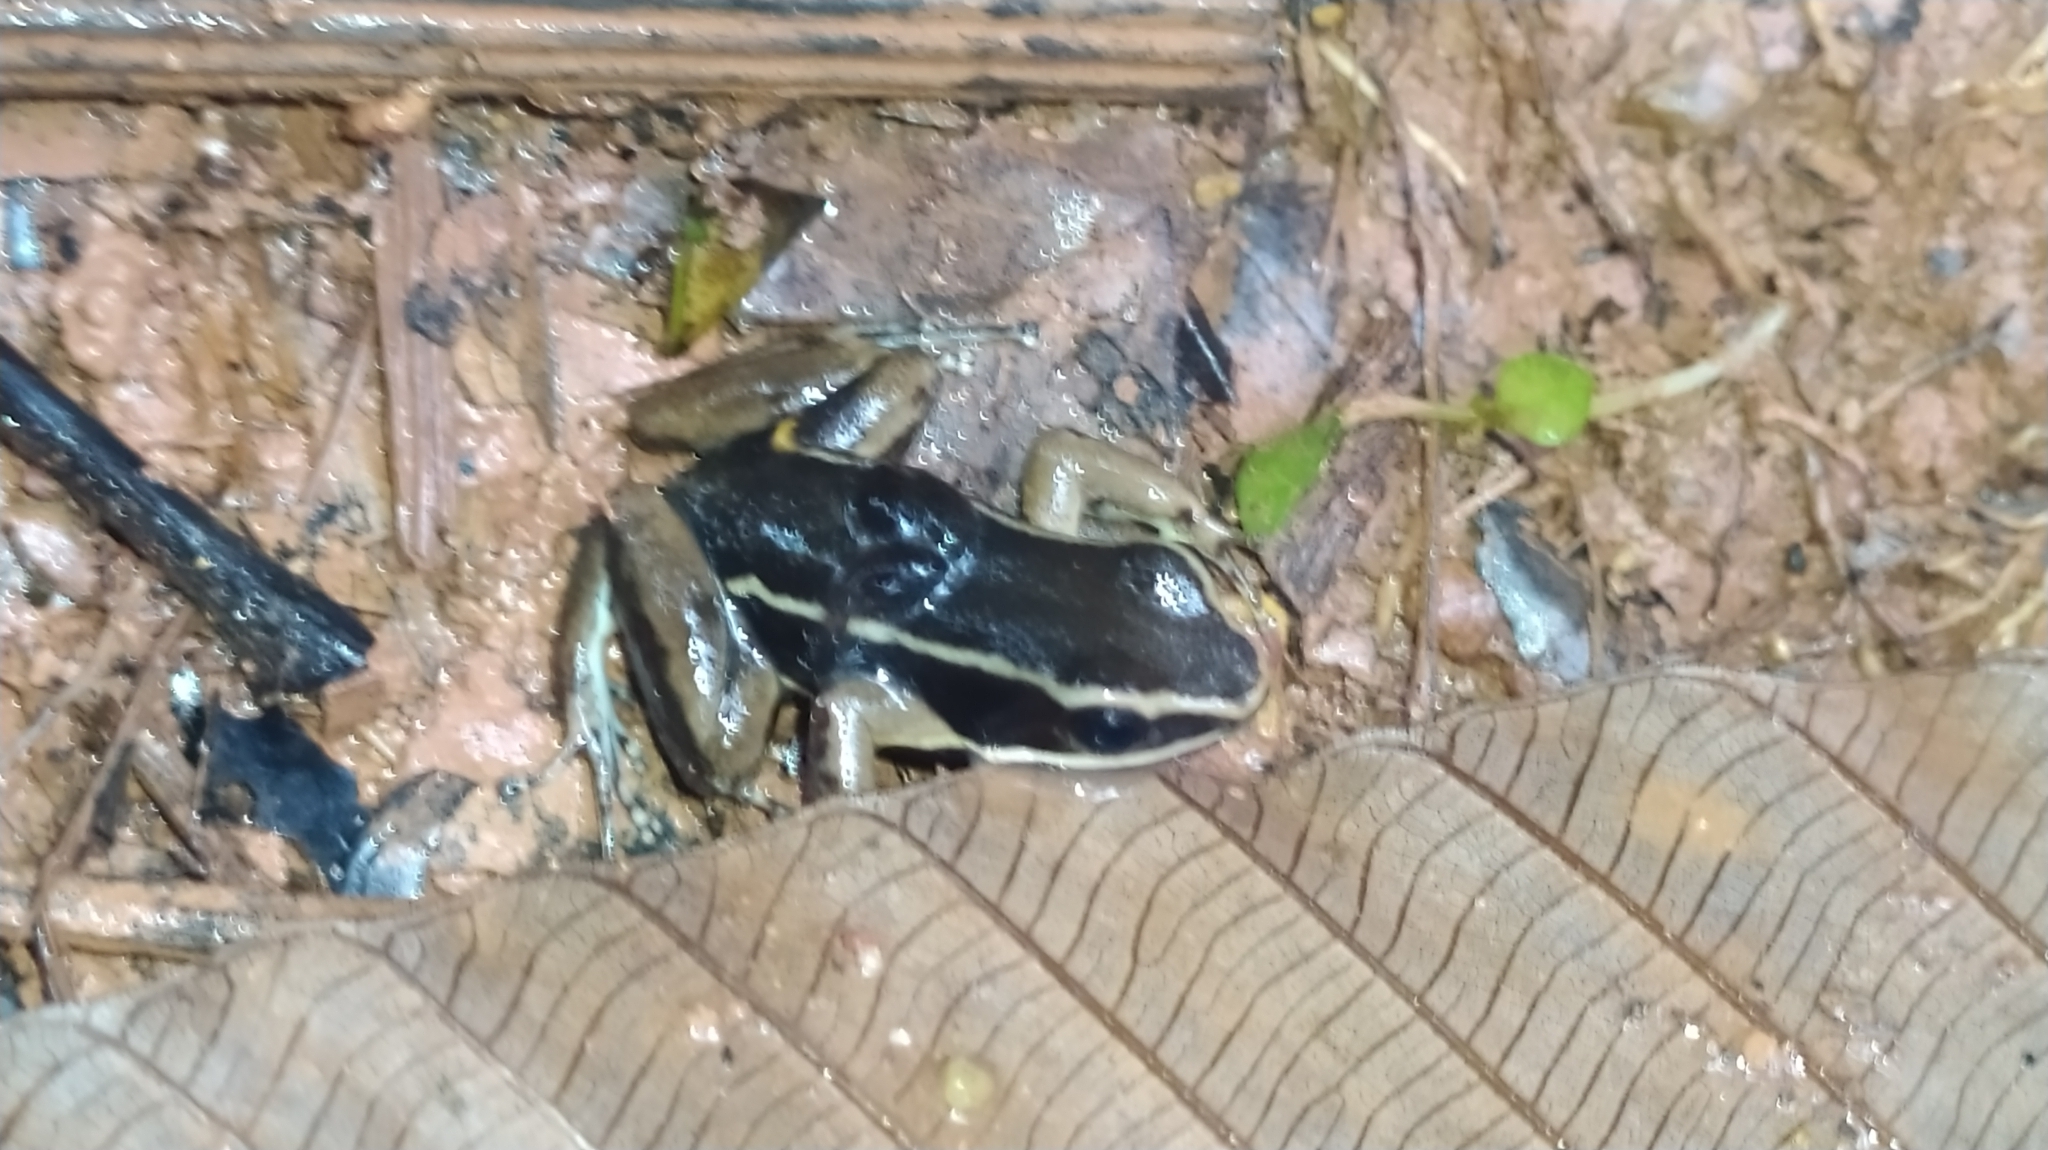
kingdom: Animalia
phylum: Chordata
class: Amphibia
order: Anura
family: Aromobatidae
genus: Allobates
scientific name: Allobates femoralis
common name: Brilliant-thighed poison frog
